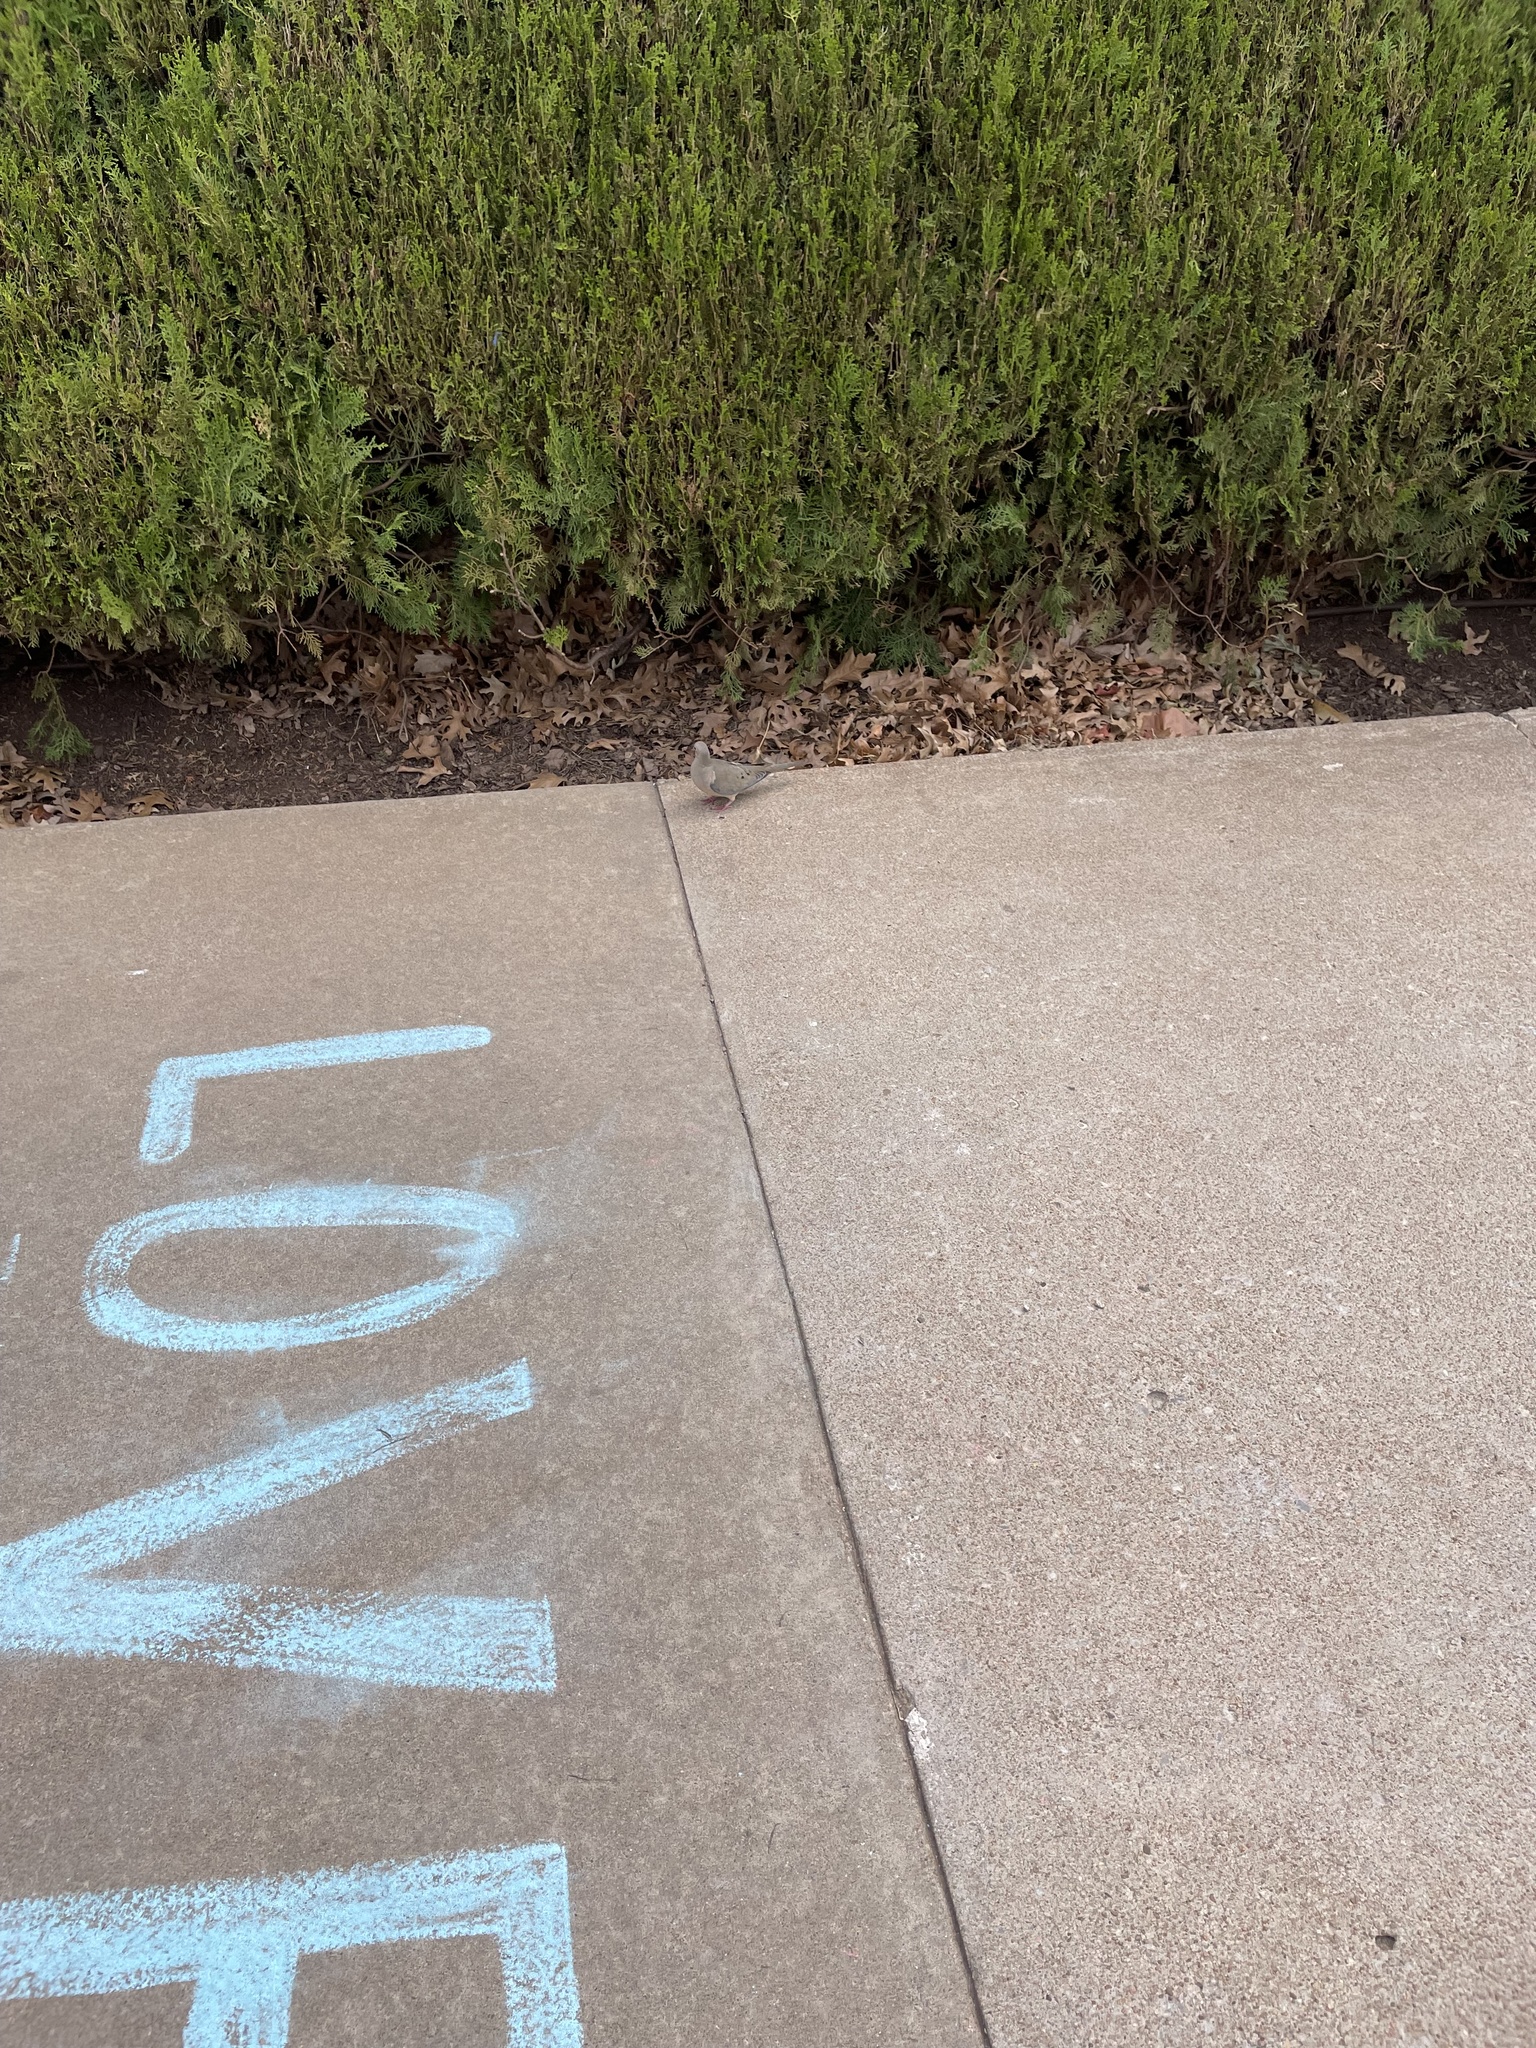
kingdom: Animalia
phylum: Chordata
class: Aves
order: Columbiformes
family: Columbidae
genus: Zenaida
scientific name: Zenaida macroura
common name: Mourning dove
